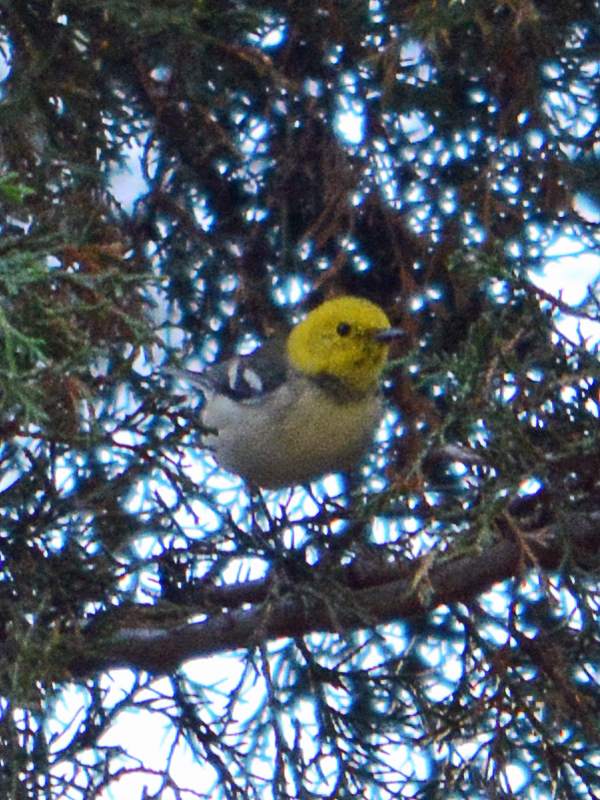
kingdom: Animalia
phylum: Chordata
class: Aves
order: Passeriformes
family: Parulidae
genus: Setophaga
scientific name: Setophaga occidentalis
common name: Hermit warbler
